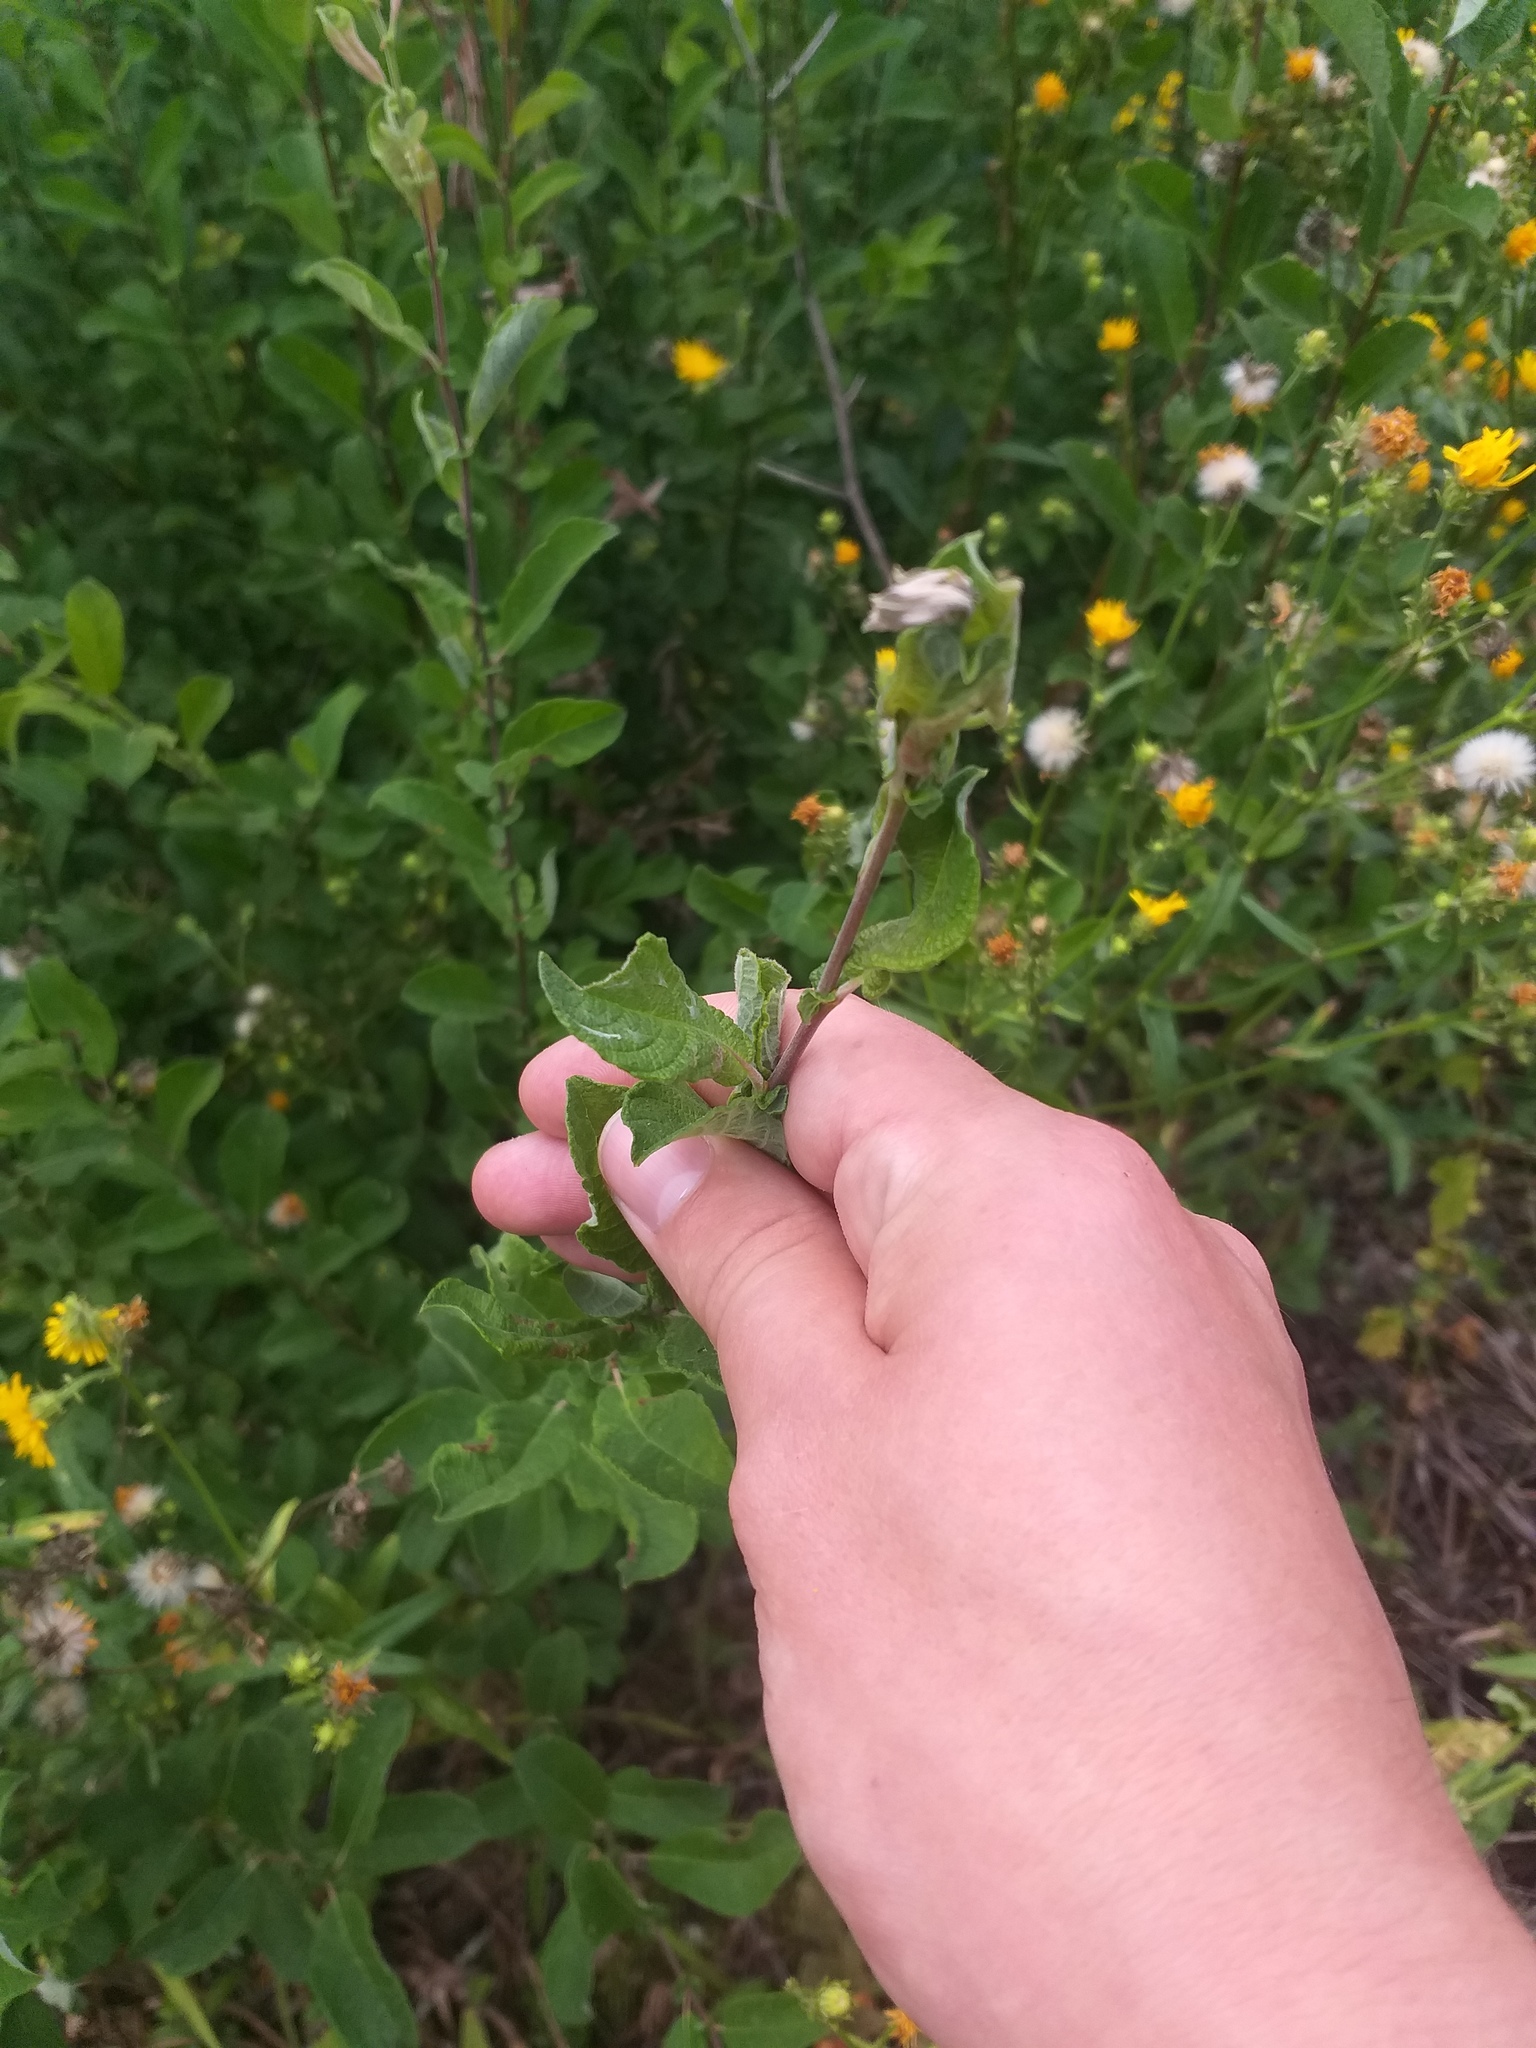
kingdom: Plantae
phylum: Tracheophyta
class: Magnoliopsida
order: Malpighiales
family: Salicaceae
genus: Salix
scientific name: Salix aurita
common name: Eared willow
